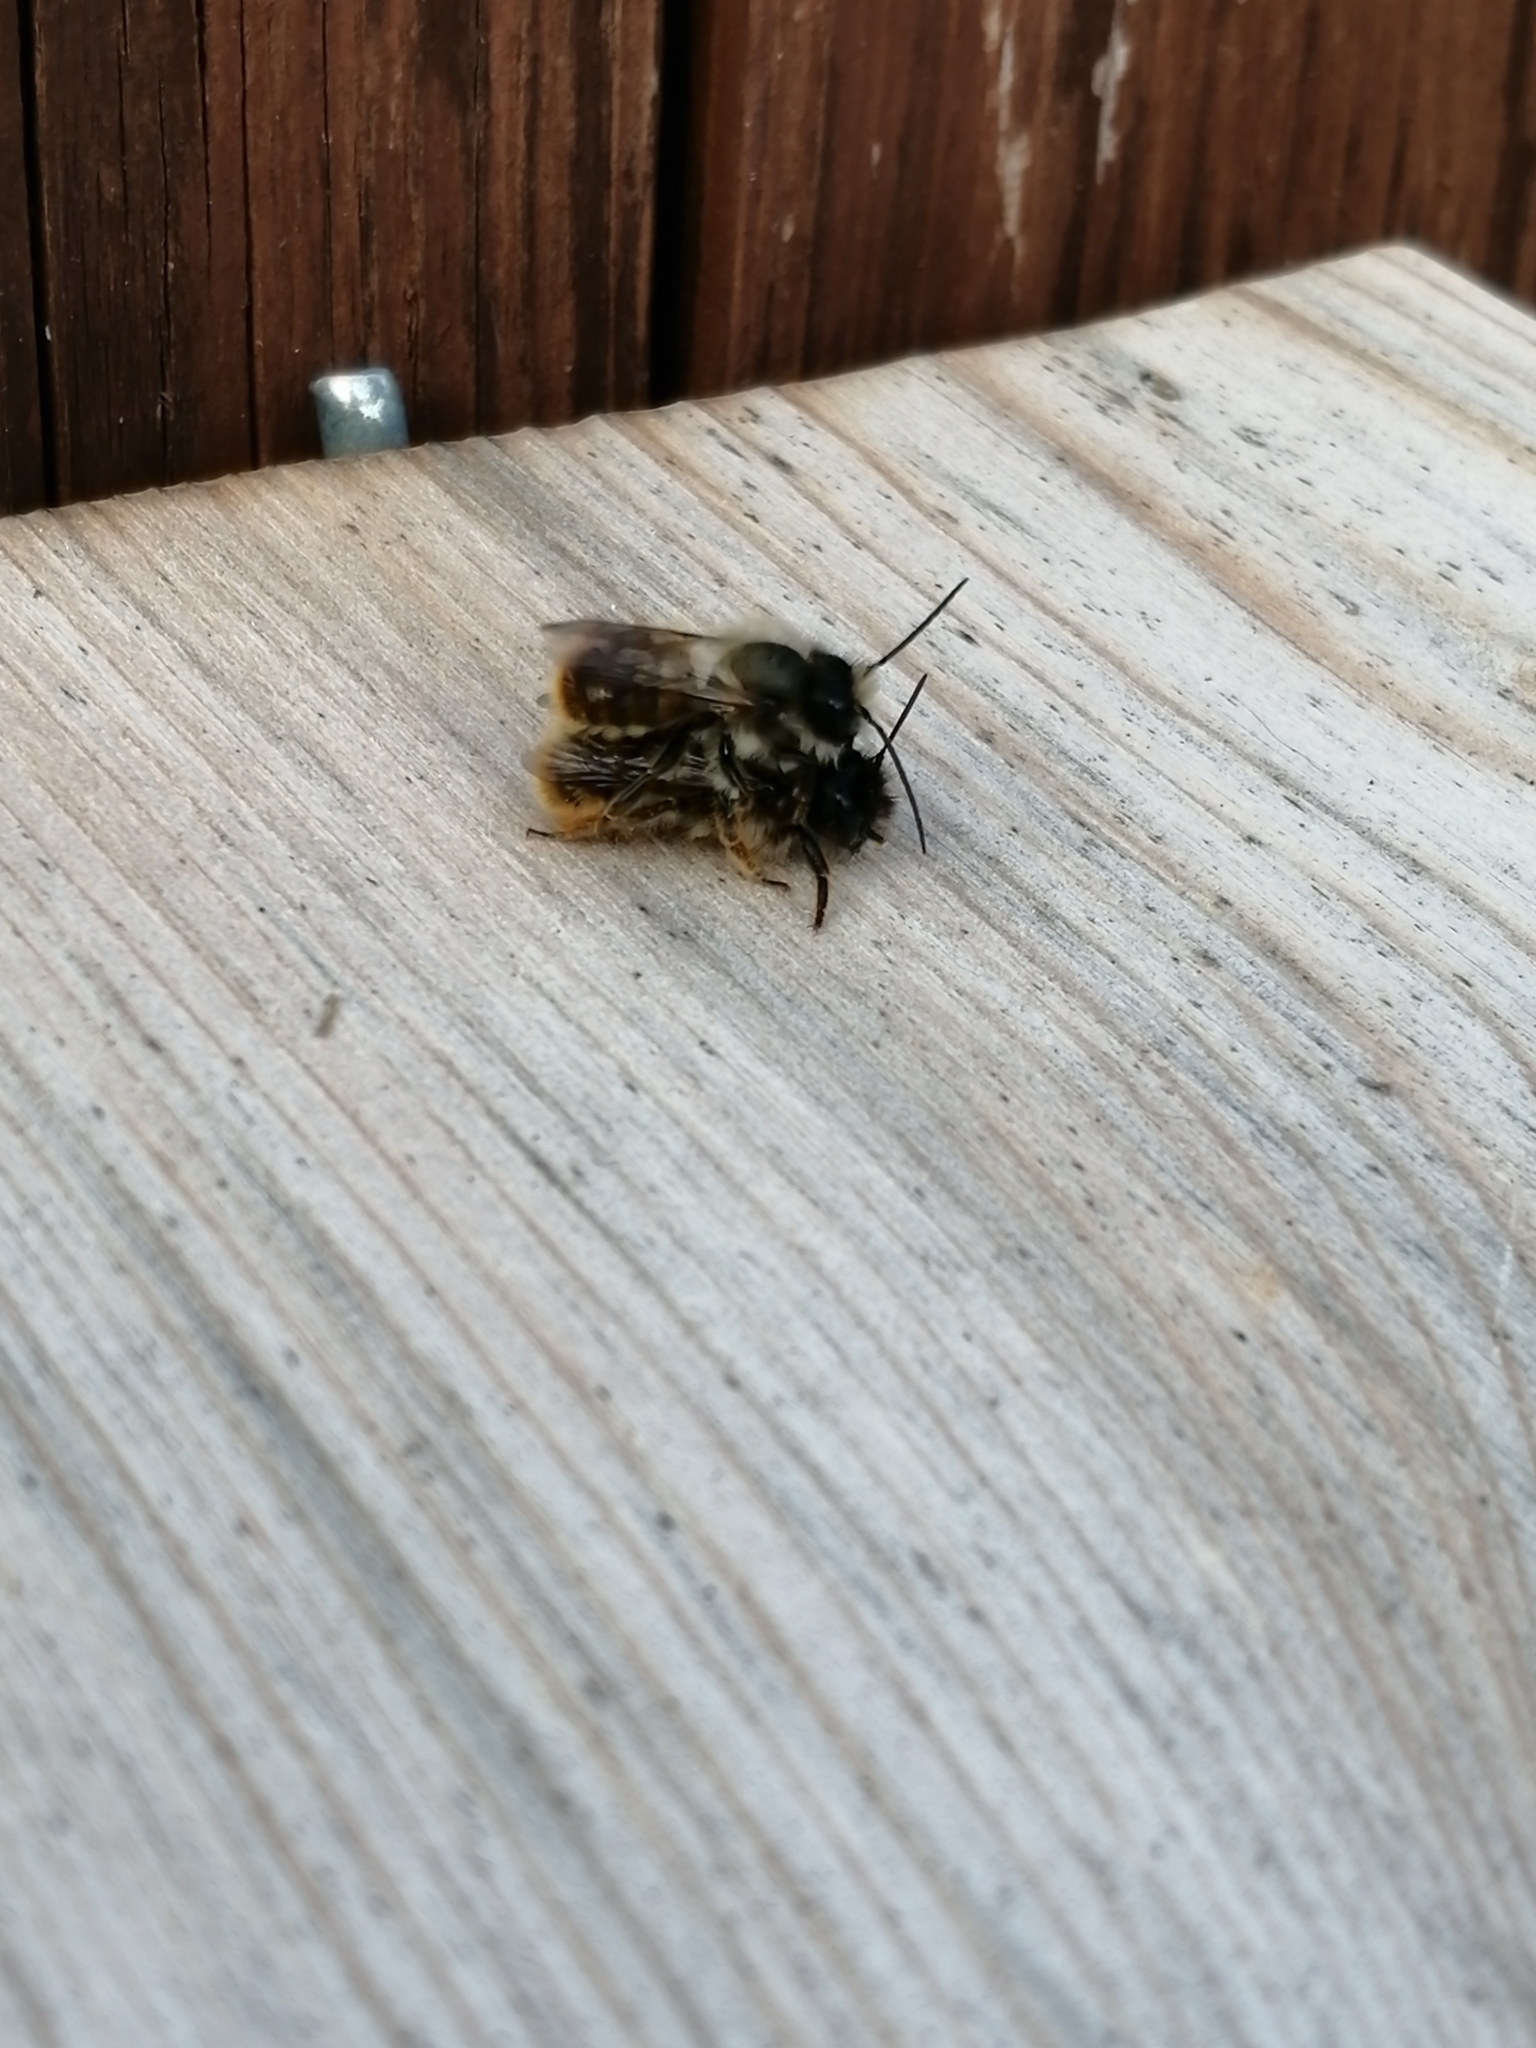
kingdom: Animalia
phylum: Arthropoda
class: Insecta
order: Hymenoptera
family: Megachilidae
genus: Osmia
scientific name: Osmia bicornis
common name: Red mason bee
